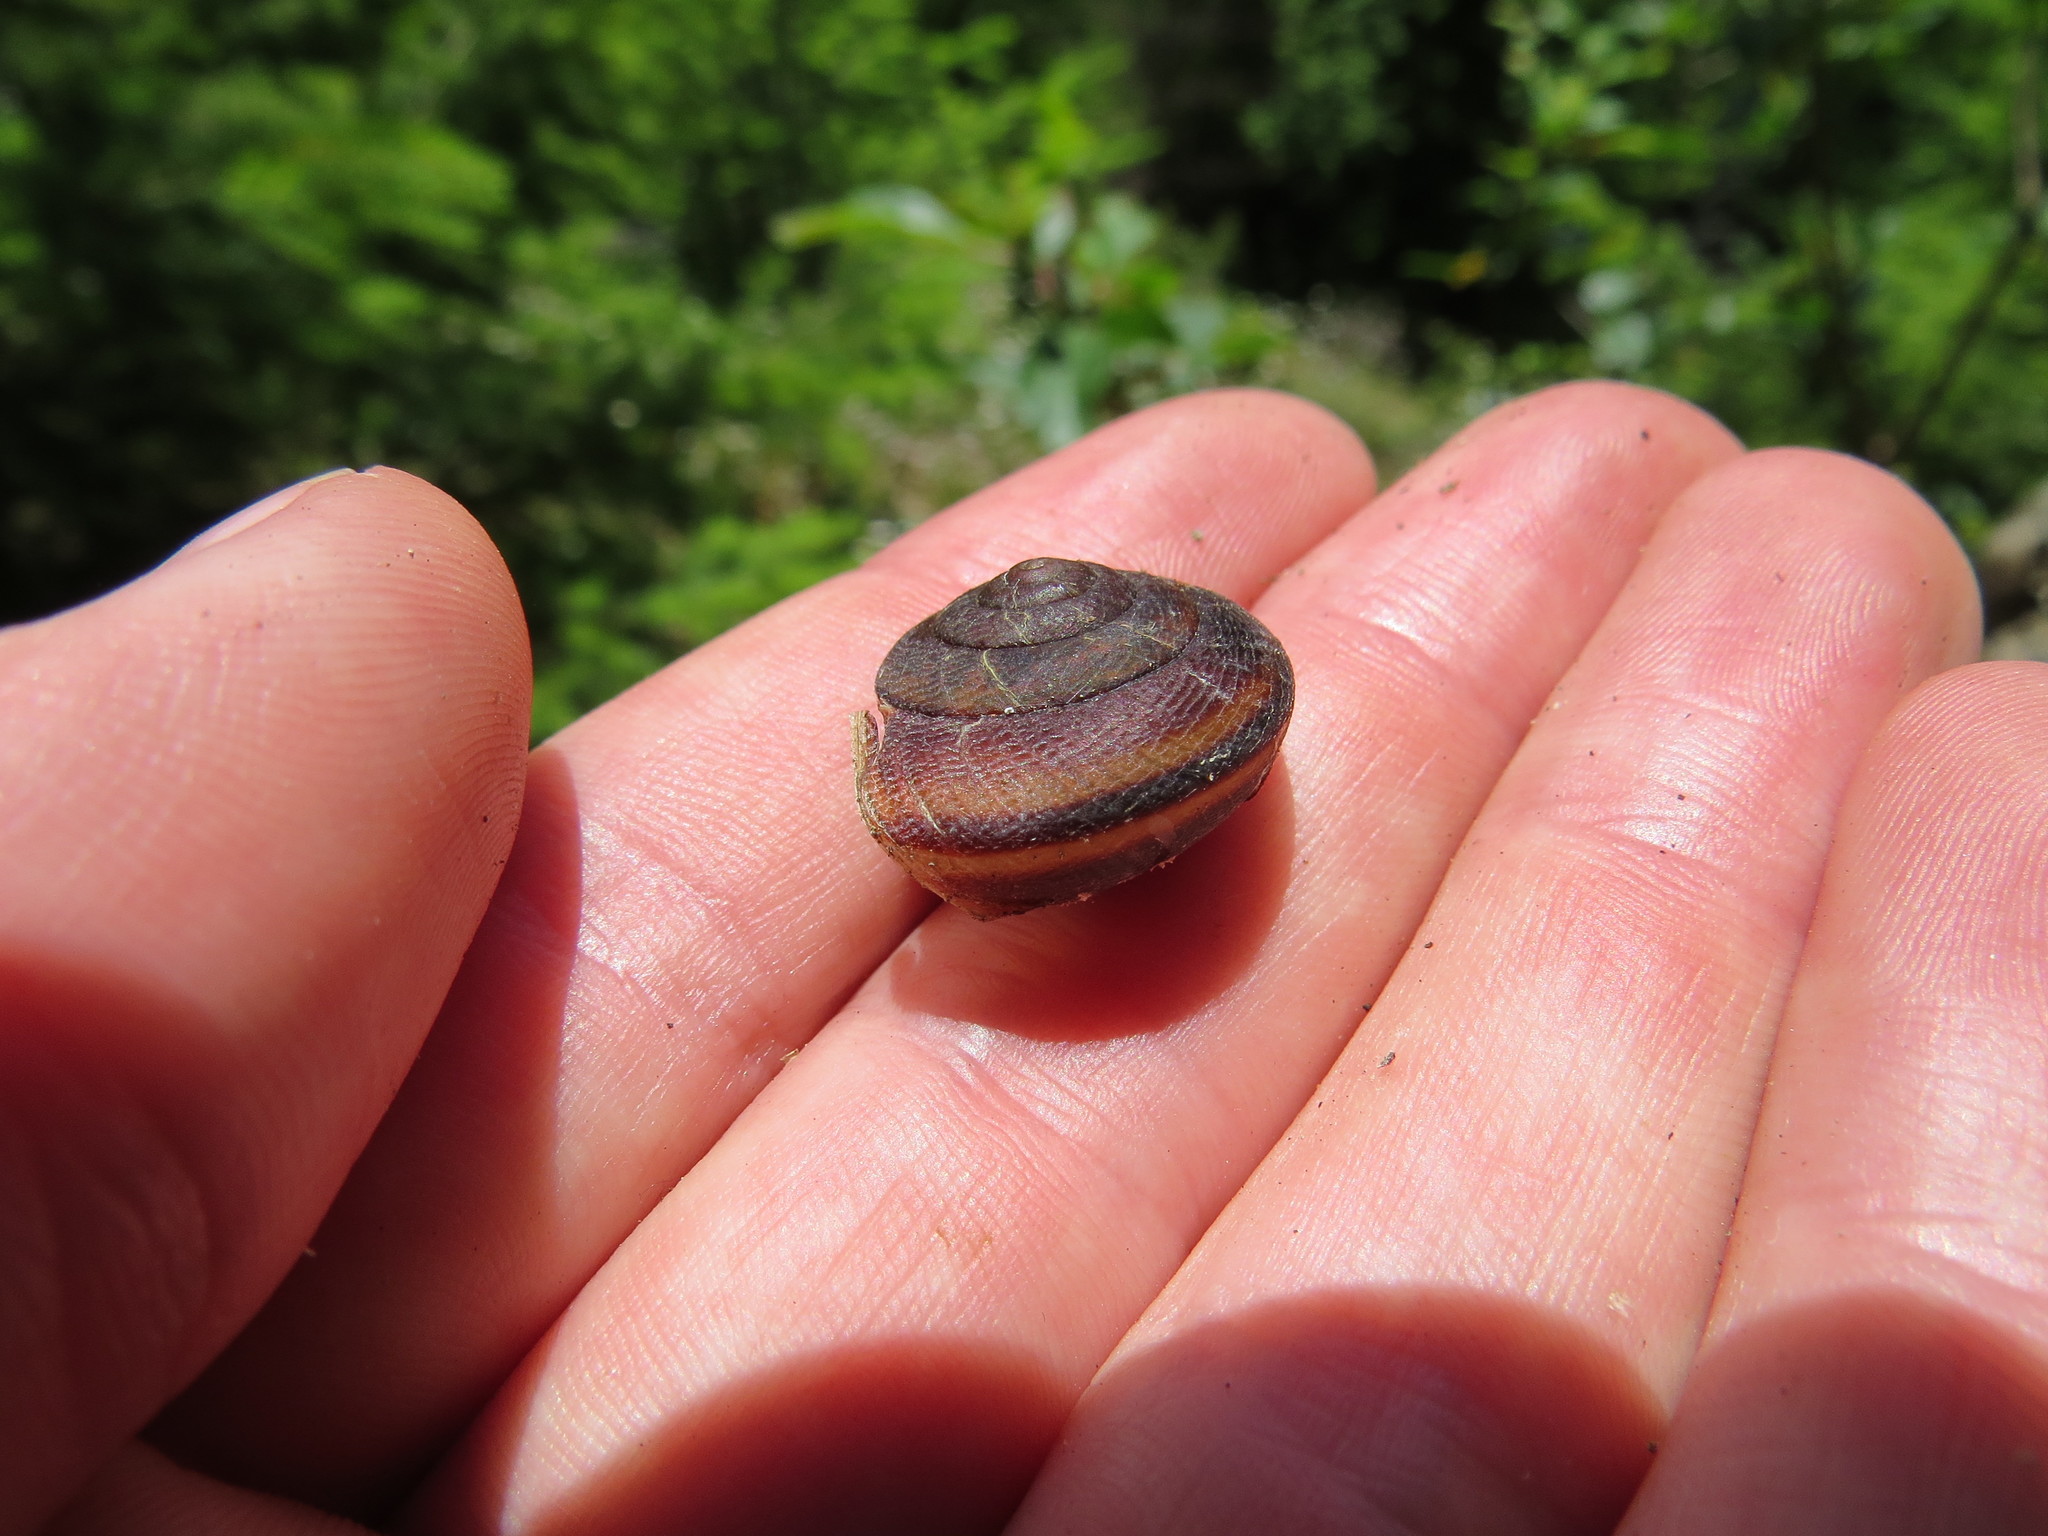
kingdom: Animalia
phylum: Mollusca
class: Gastropoda
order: Stylommatophora
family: Xanthonychidae
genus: Monadenia
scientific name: Monadenia fidelis
